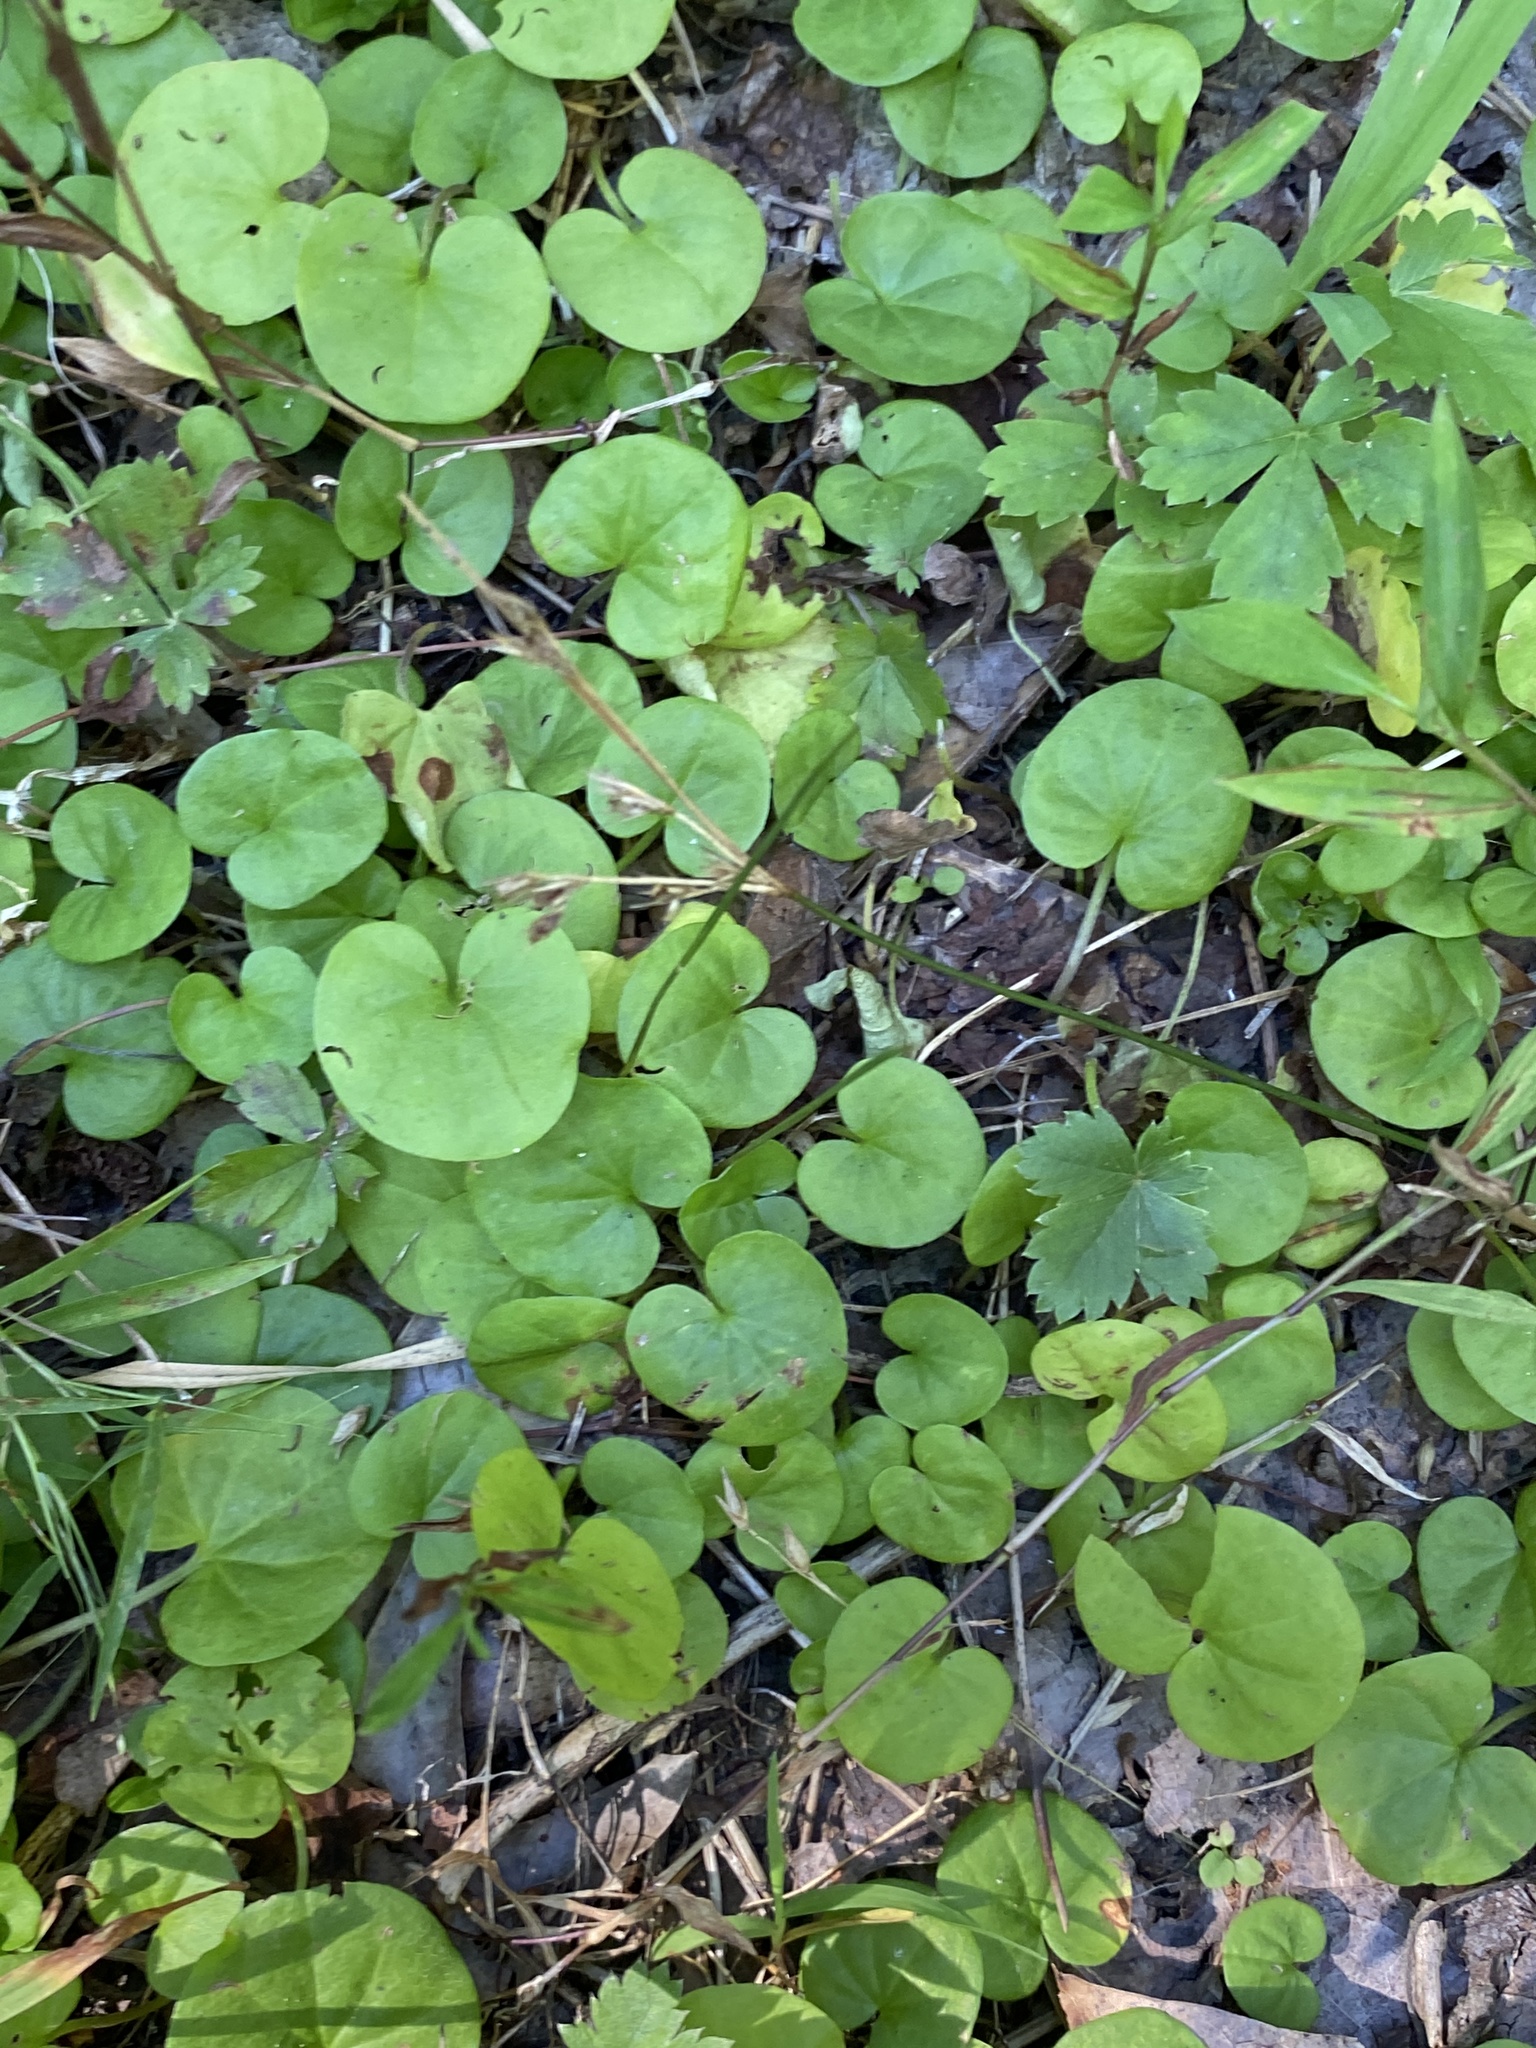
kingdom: Plantae
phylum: Tracheophyta
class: Magnoliopsida
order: Solanales
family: Convolvulaceae
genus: Dichondra
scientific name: Dichondra carolinensis
